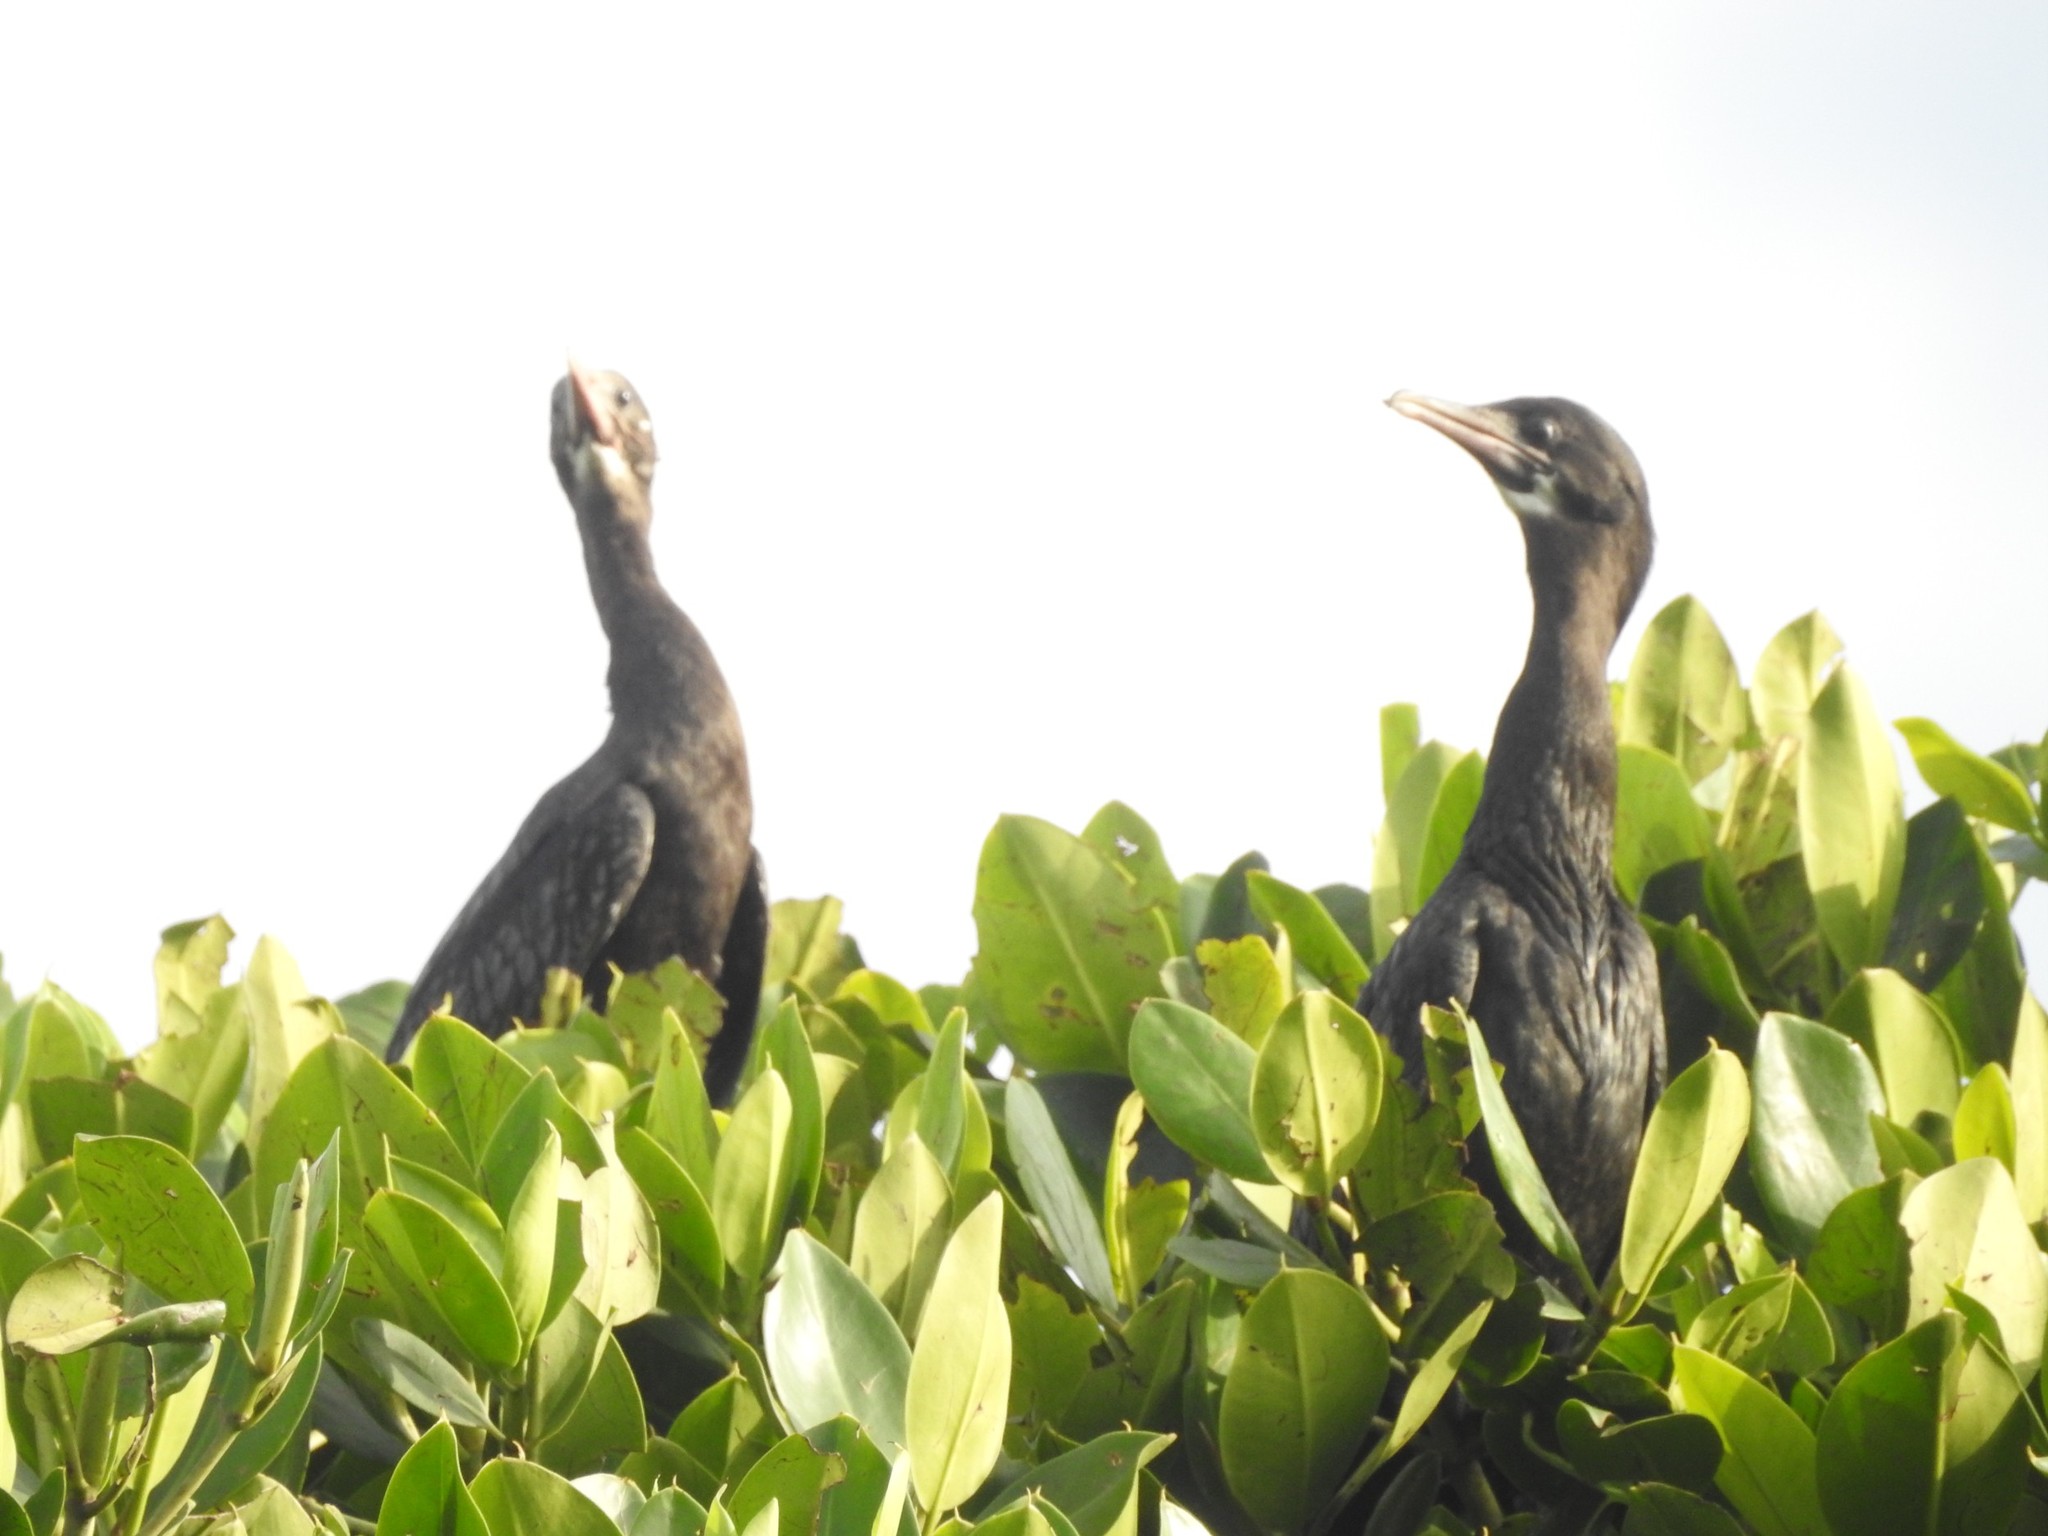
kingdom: Animalia
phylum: Chordata
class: Aves
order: Suliformes
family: Phalacrocoracidae
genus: Microcarbo
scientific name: Microcarbo niger
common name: Little cormorant
